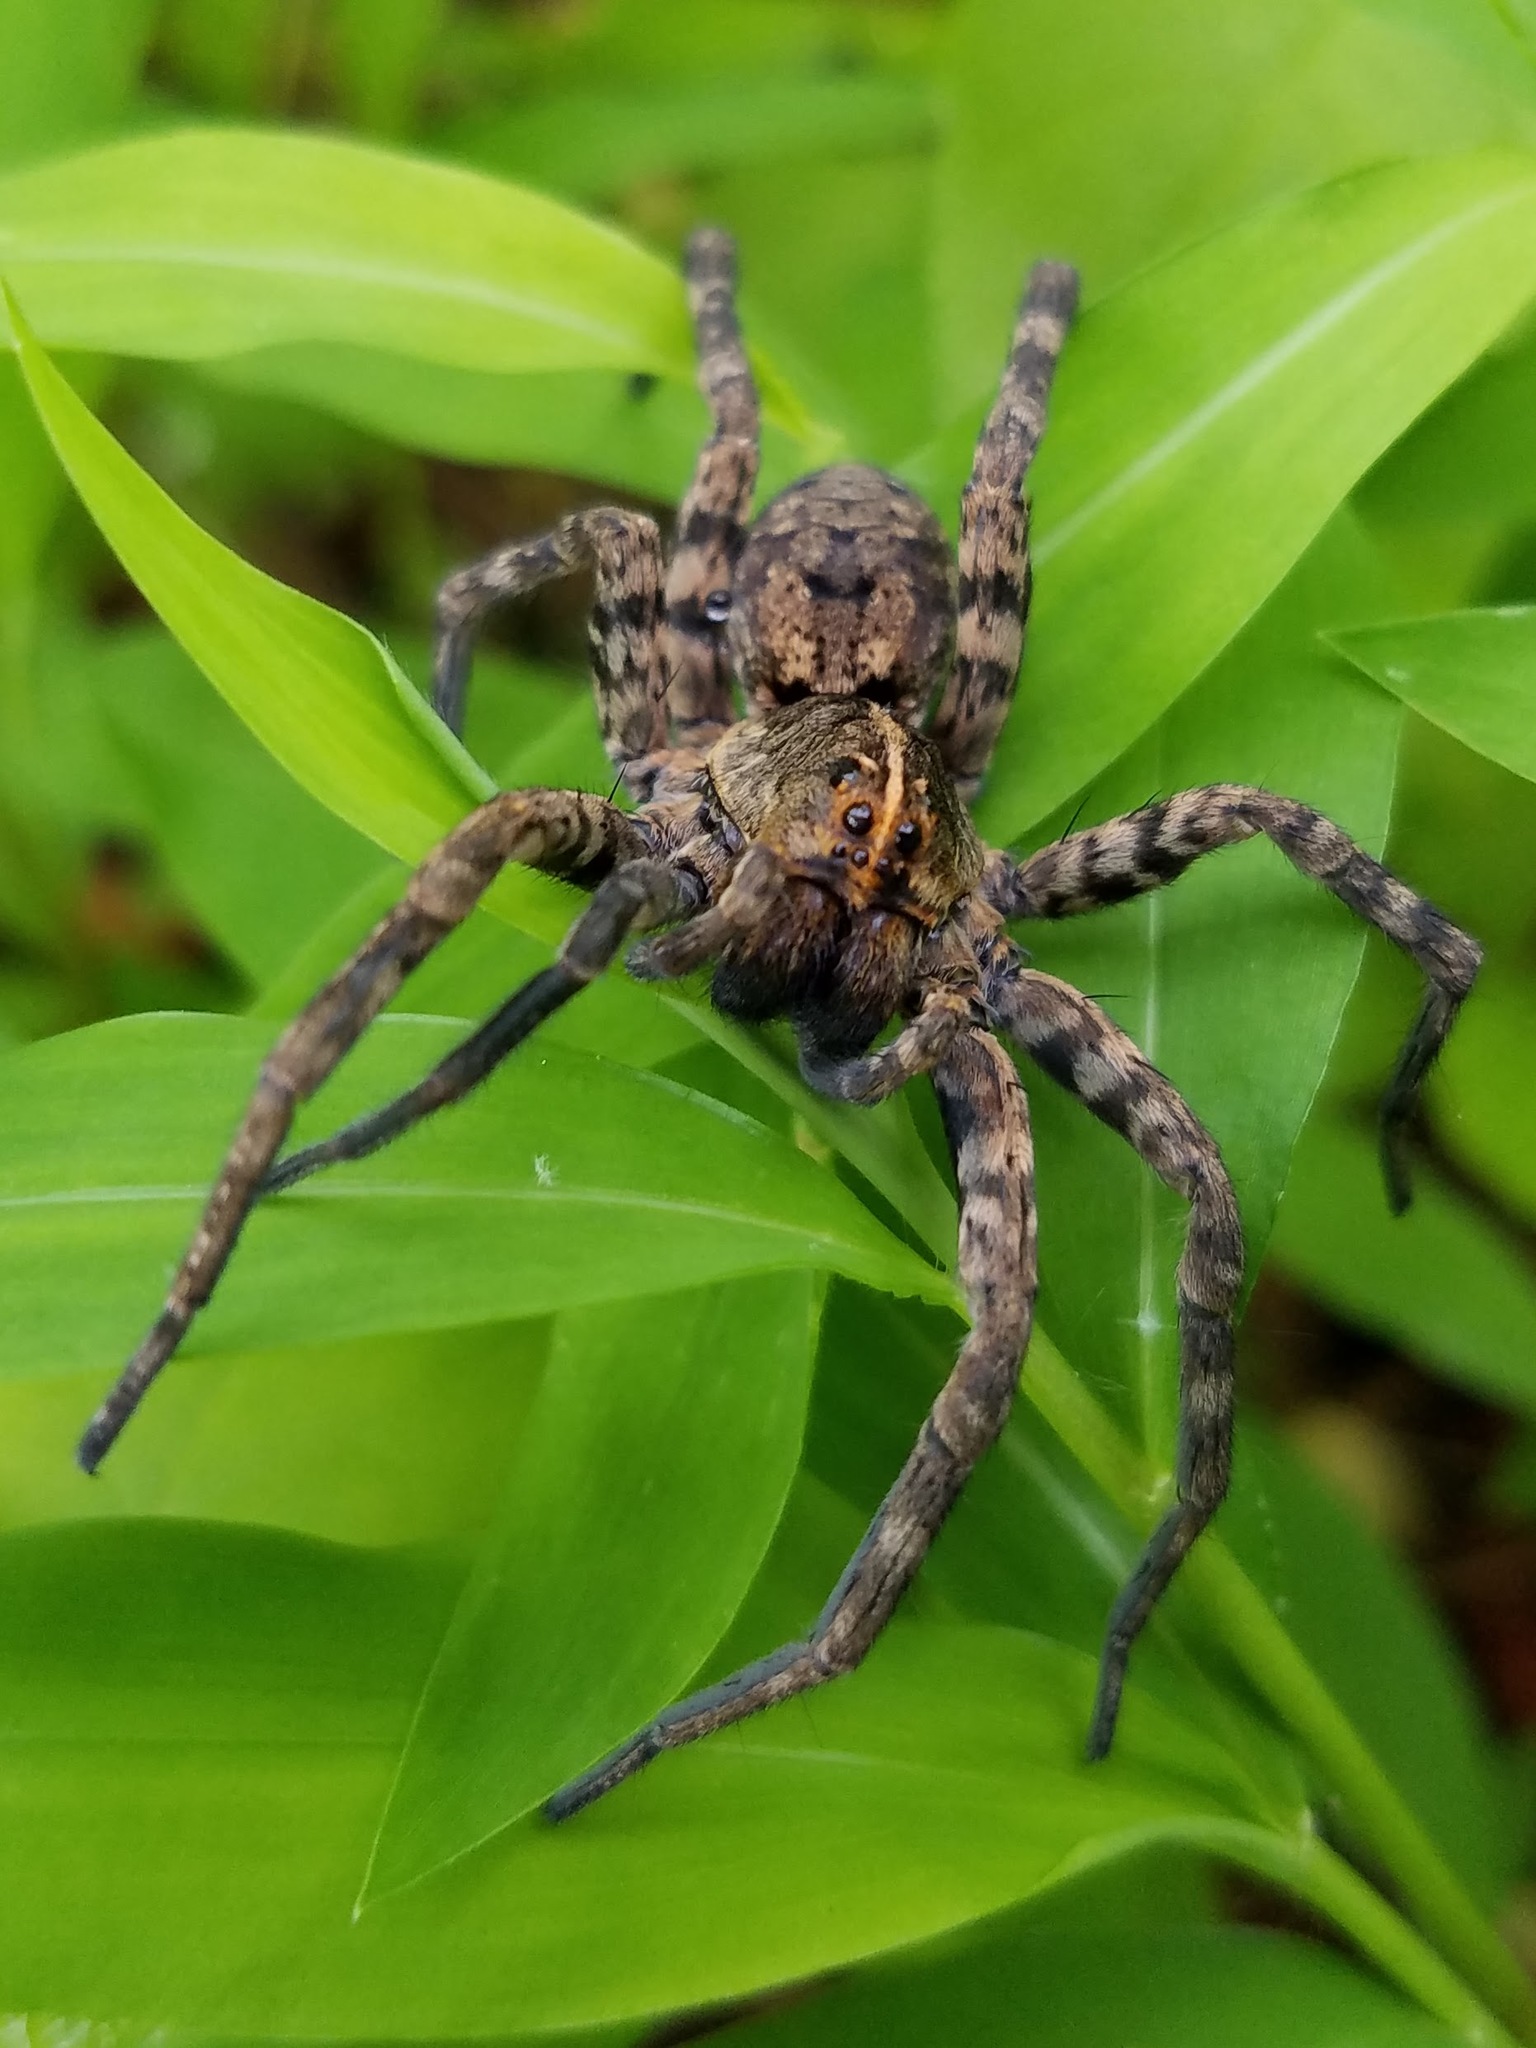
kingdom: Animalia
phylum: Arthropoda
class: Arachnida
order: Araneae
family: Lycosidae
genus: Tigrosa
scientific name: Tigrosa georgicola
